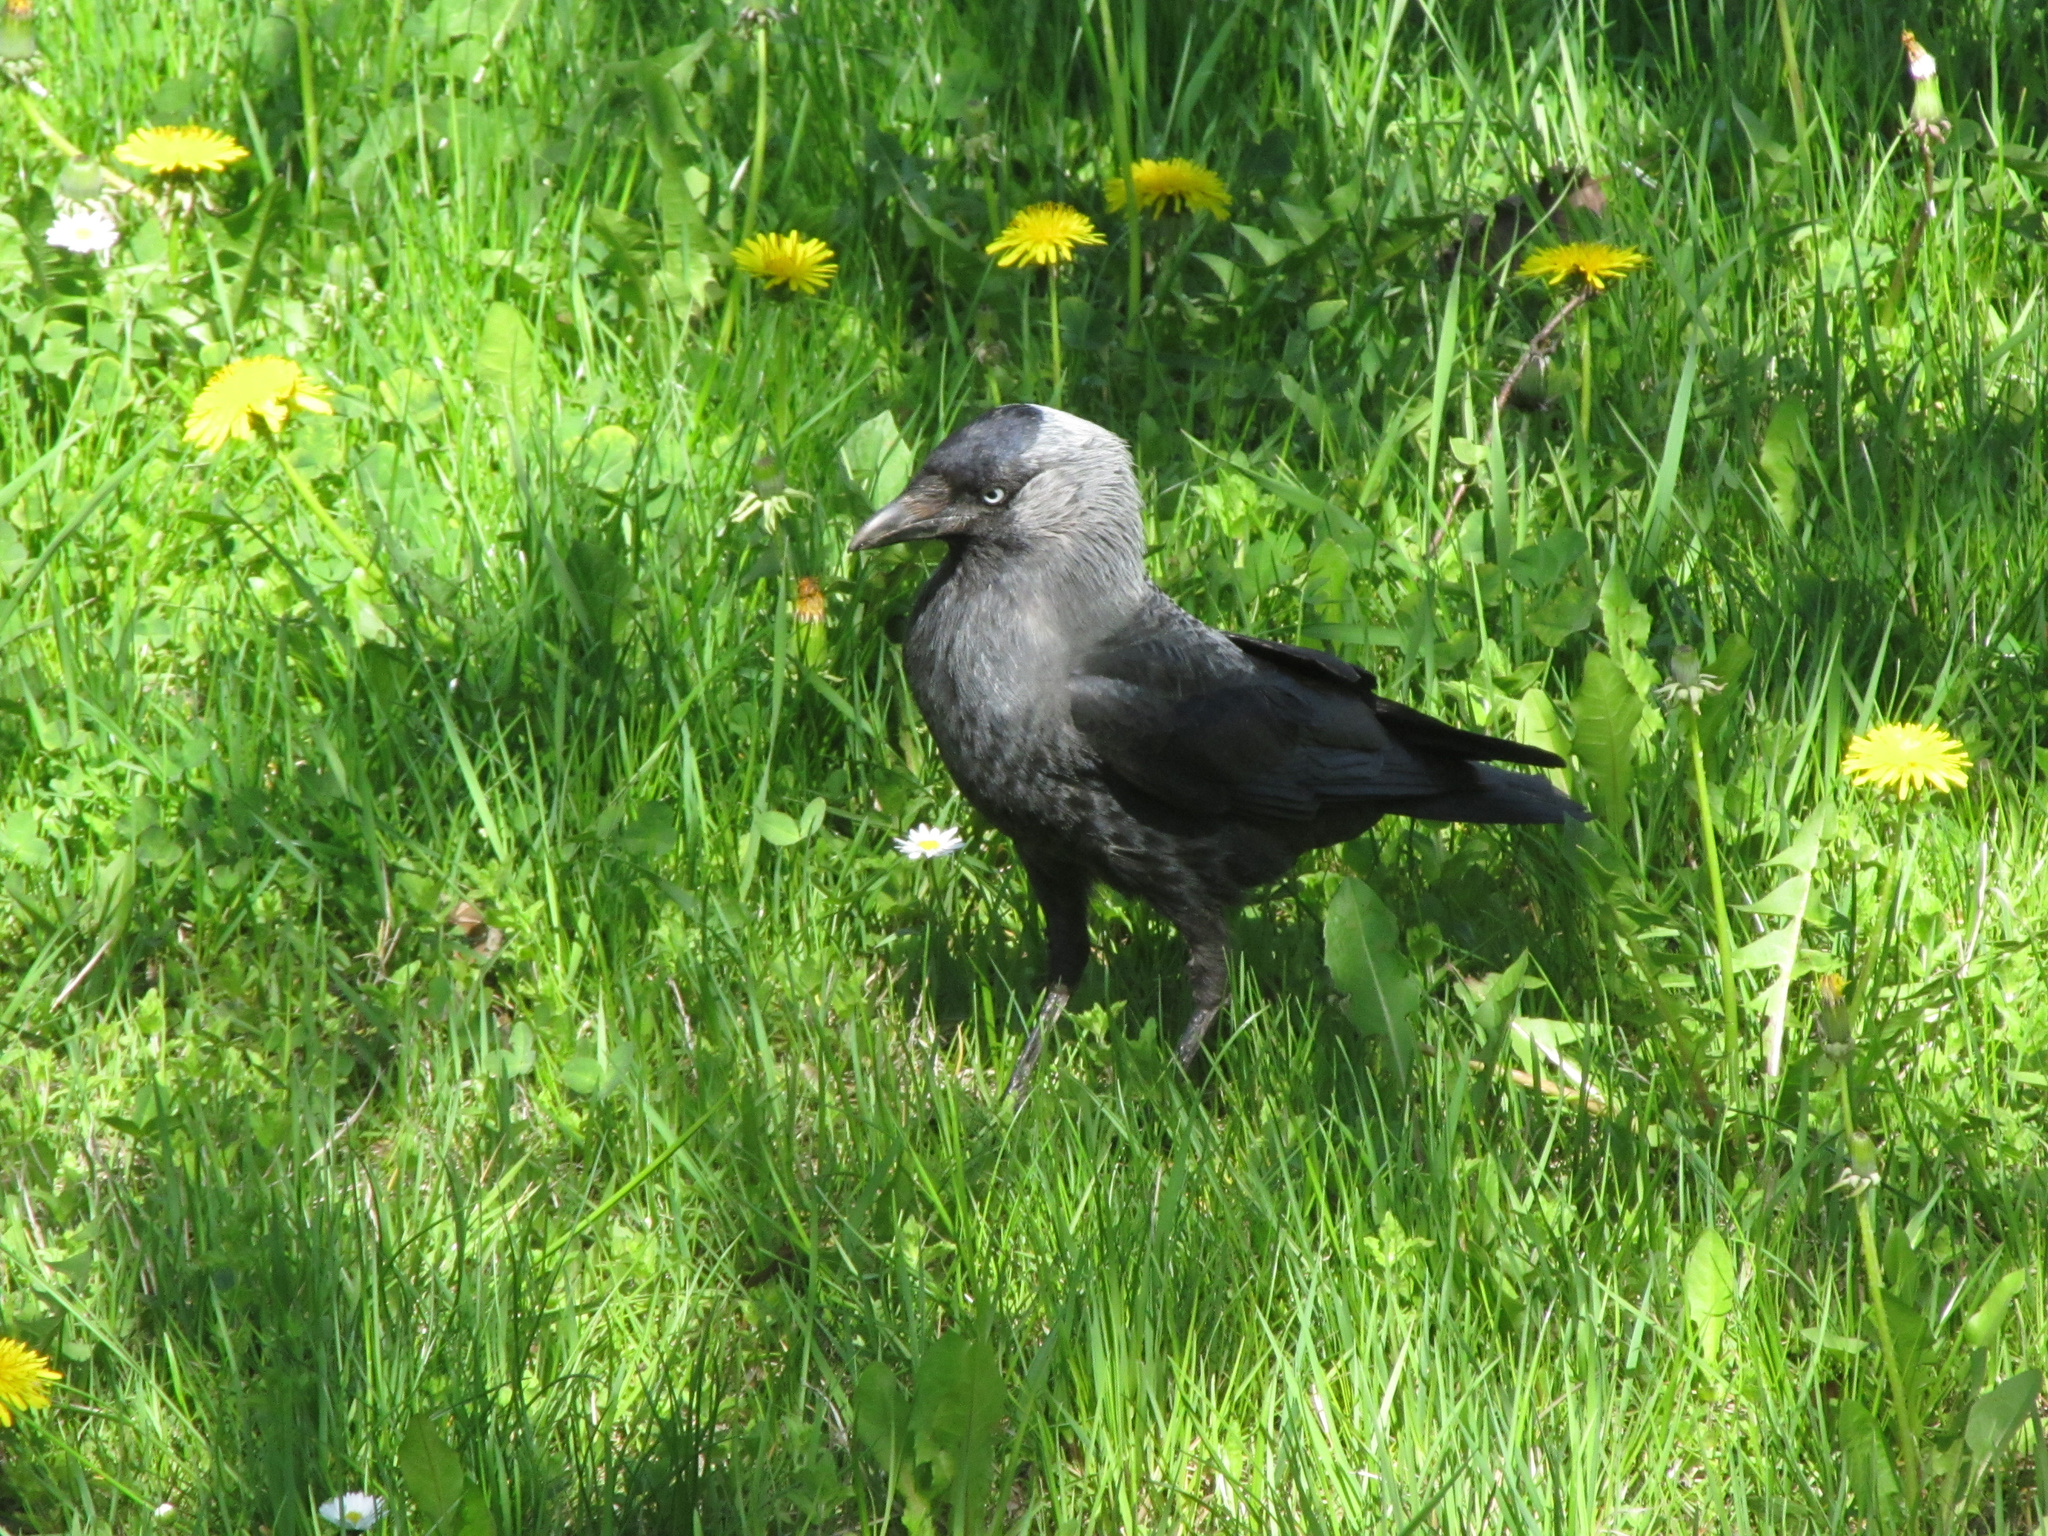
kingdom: Animalia
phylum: Chordata
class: Aves
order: Passeriformes
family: Corvidae
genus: Coloeus
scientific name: Coloeus monedula
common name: Western jackdaw
